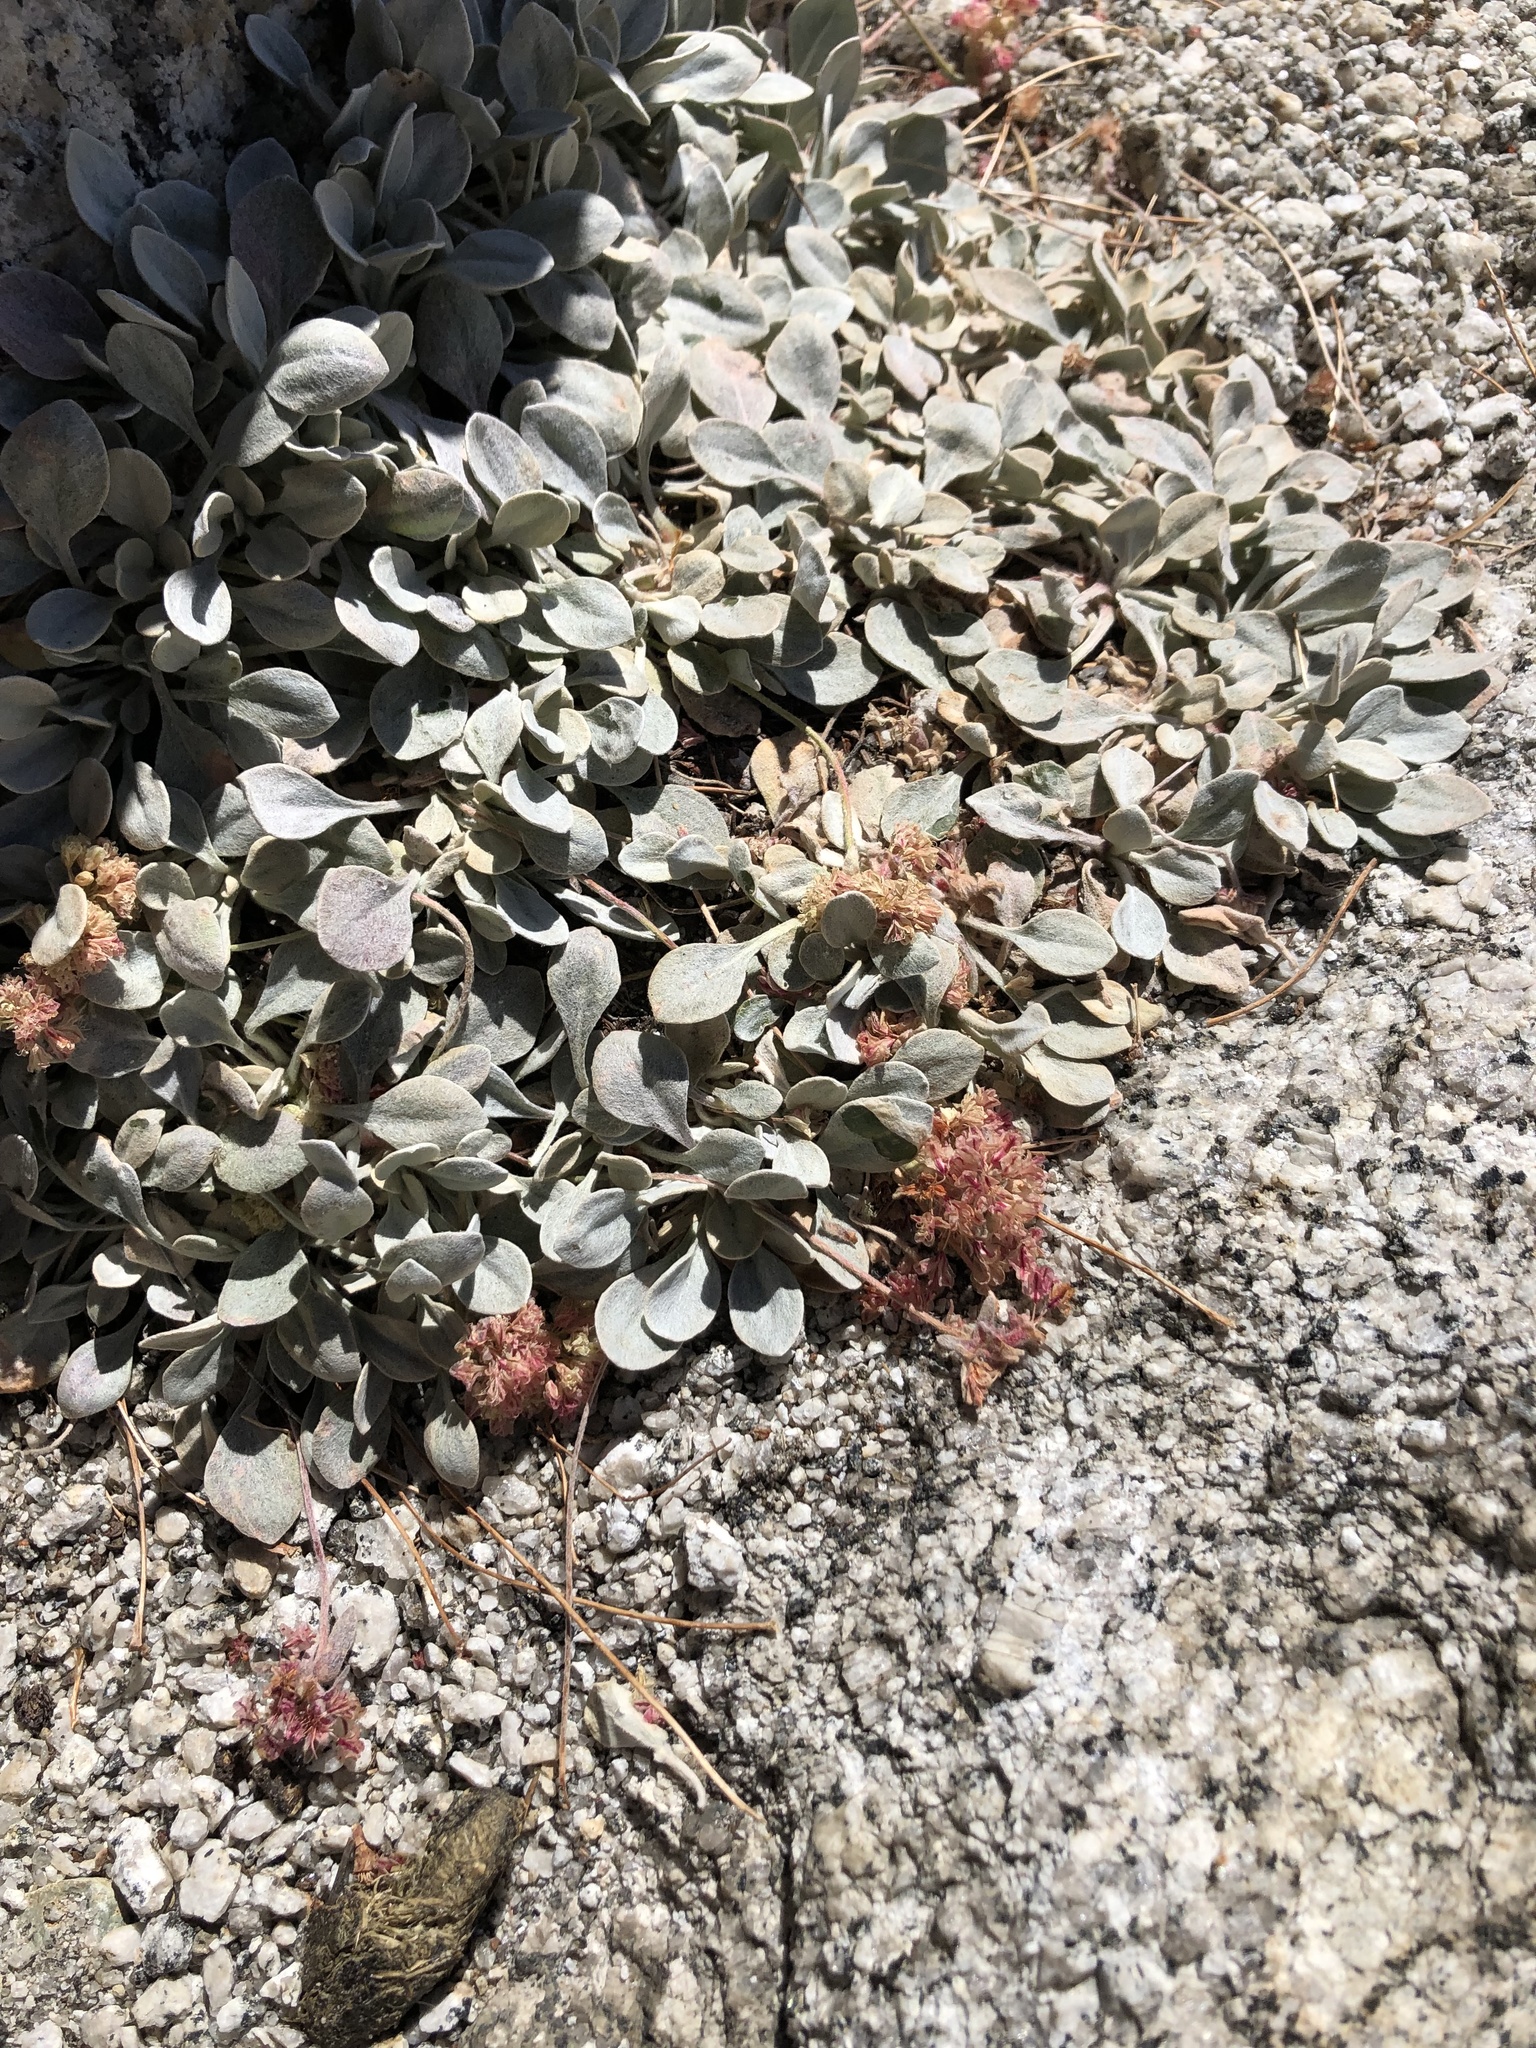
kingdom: Plantae
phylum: Tracheophyta
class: Magnoliopsida
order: Caryophyllales
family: Polygonaceae
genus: Eriogonum
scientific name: Eriogonum lobbii
